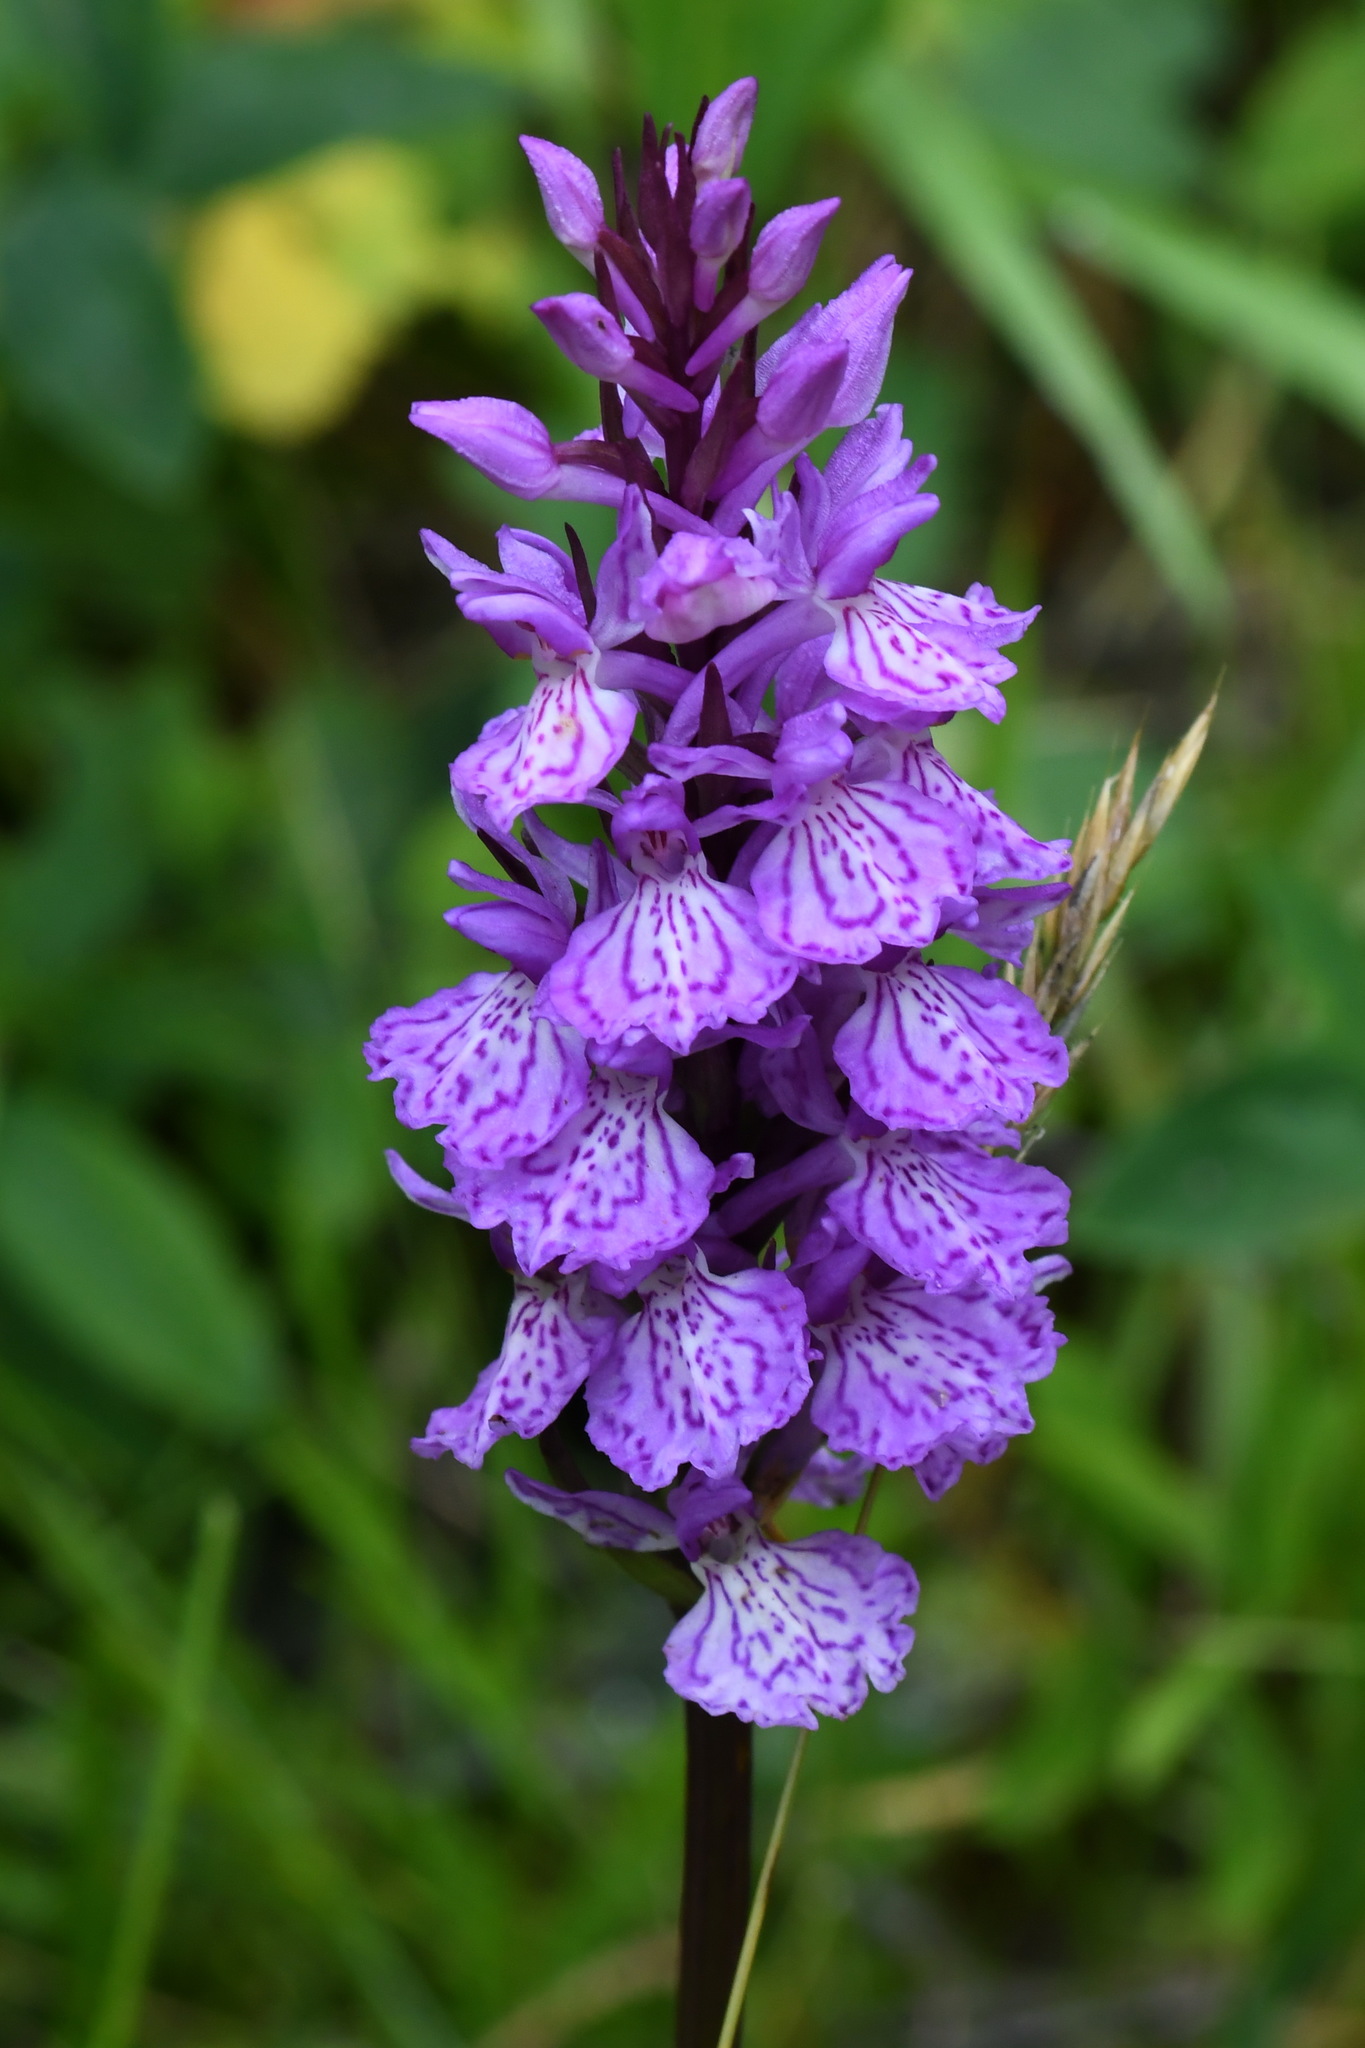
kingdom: Plantae
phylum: Tracheophyta
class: Liliopsida
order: Asparagales
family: Orchidaceae
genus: Dactylorhiza
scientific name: Dactylorhiza maculata
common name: Heath spotted-orchid
